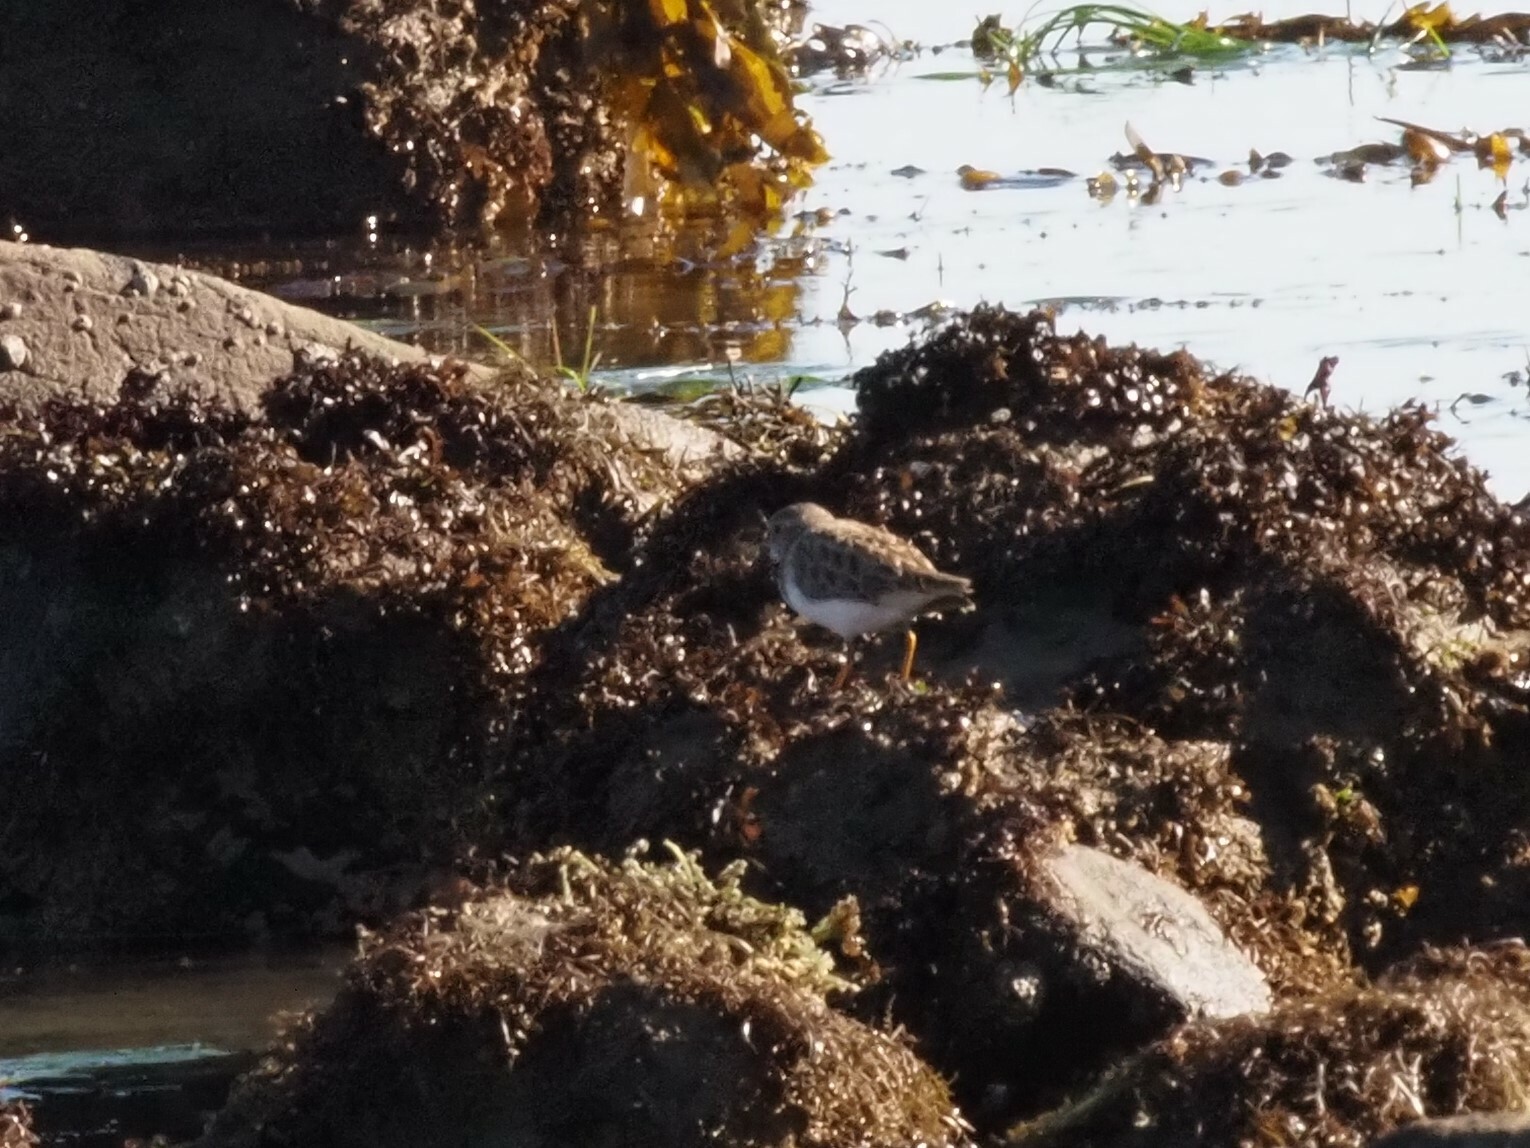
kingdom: Animalia
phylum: Chordata
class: Aves
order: Charadriiformes
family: Scolopacidae
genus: Calidris
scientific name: Calidris minutilla
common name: Least sandpiper
